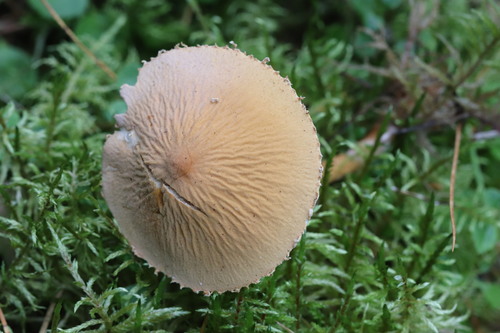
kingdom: Fungi
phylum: Basidiomycota
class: Agaricomycetes
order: Agaricales
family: Tricholomataceae
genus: Cystoderma
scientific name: Cystoderma jasonis
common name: Pine powdercap
